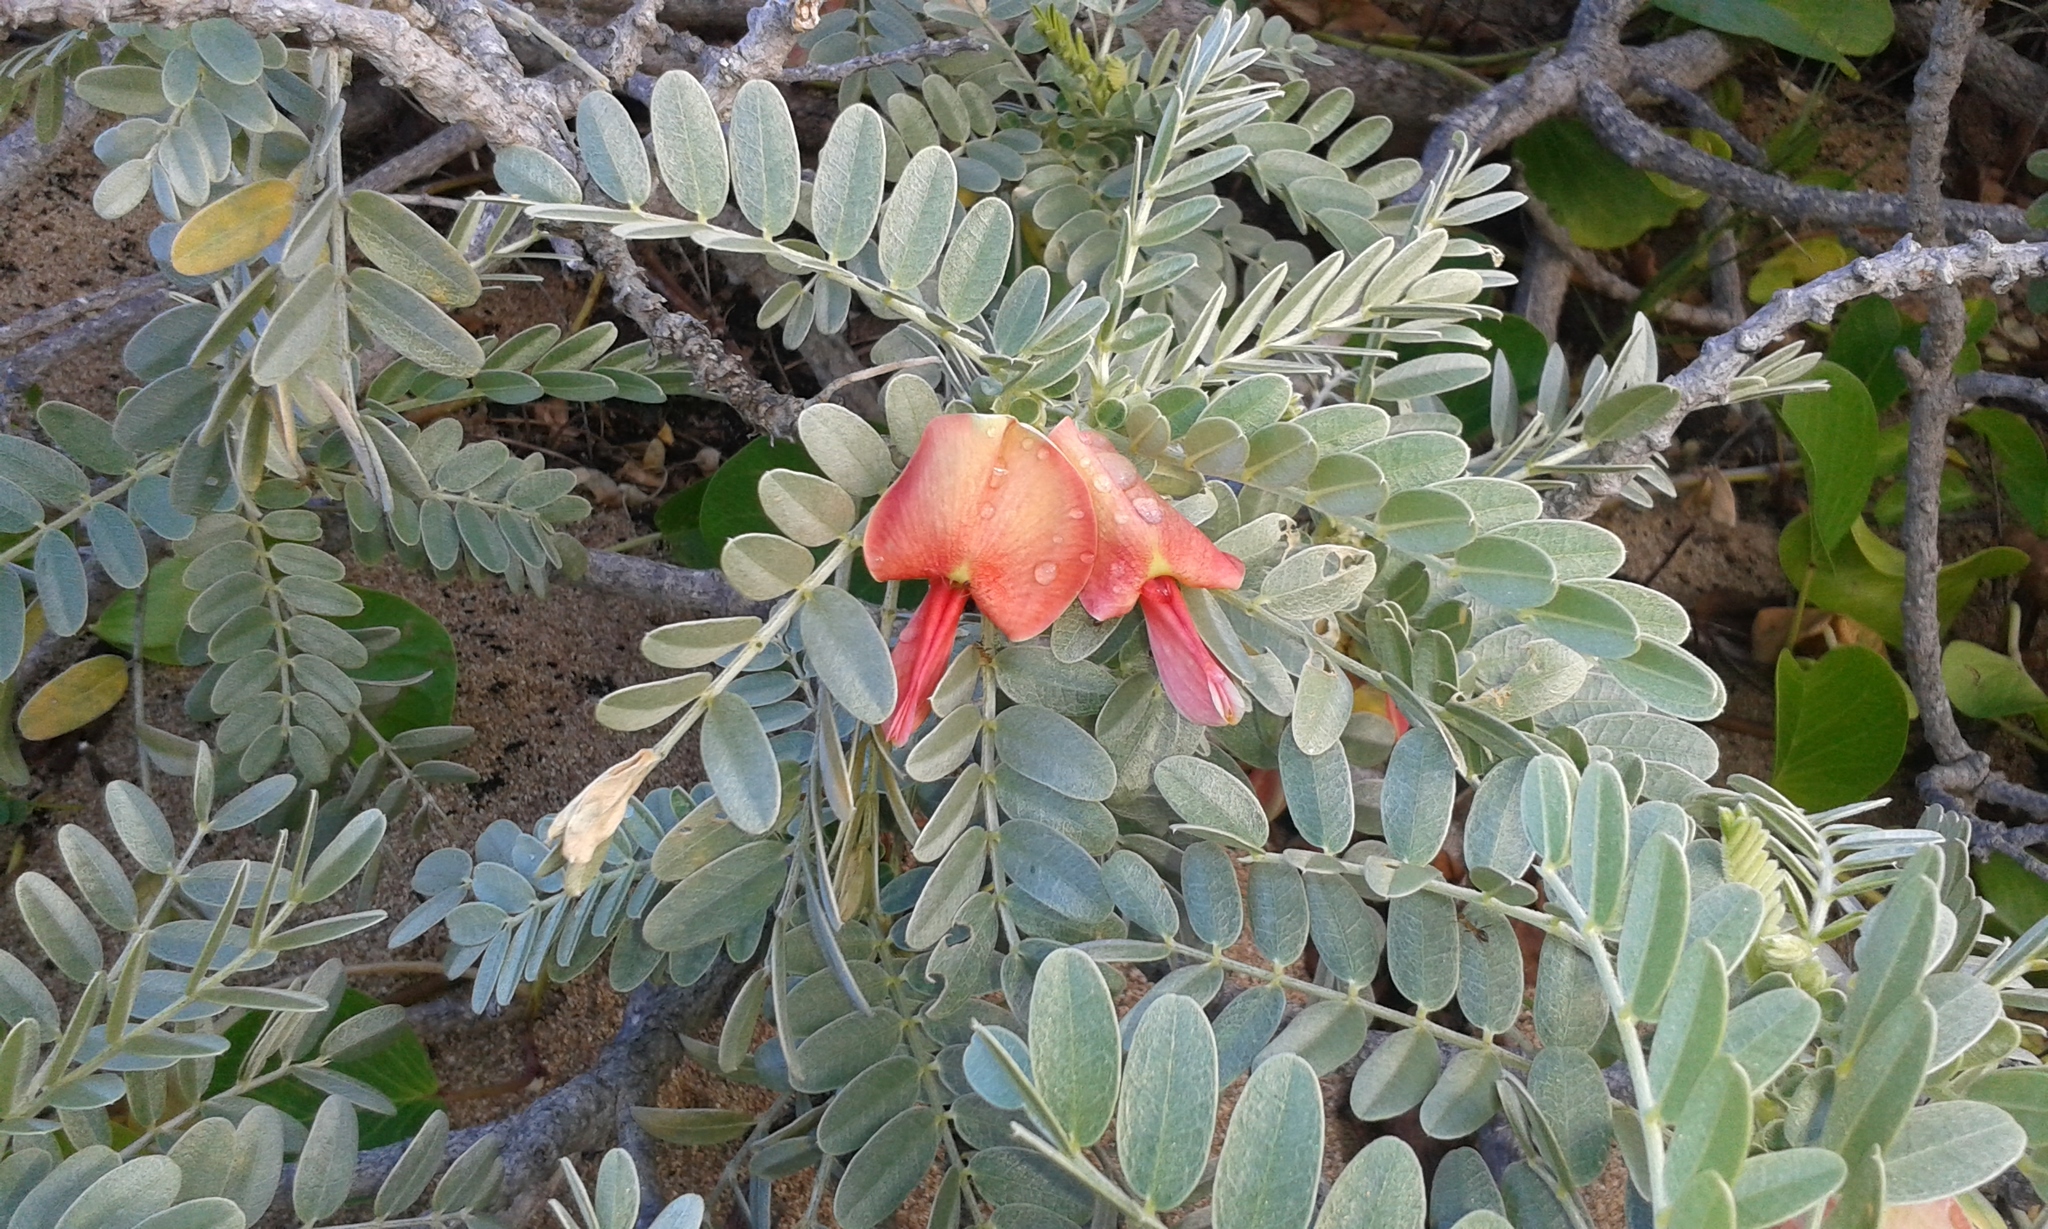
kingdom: Plantae
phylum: Tracheophyta
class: Magnoliopsida
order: Fabales
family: Fabaceae
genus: Sesbania
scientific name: Sesbania tomentosa
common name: `ohai
